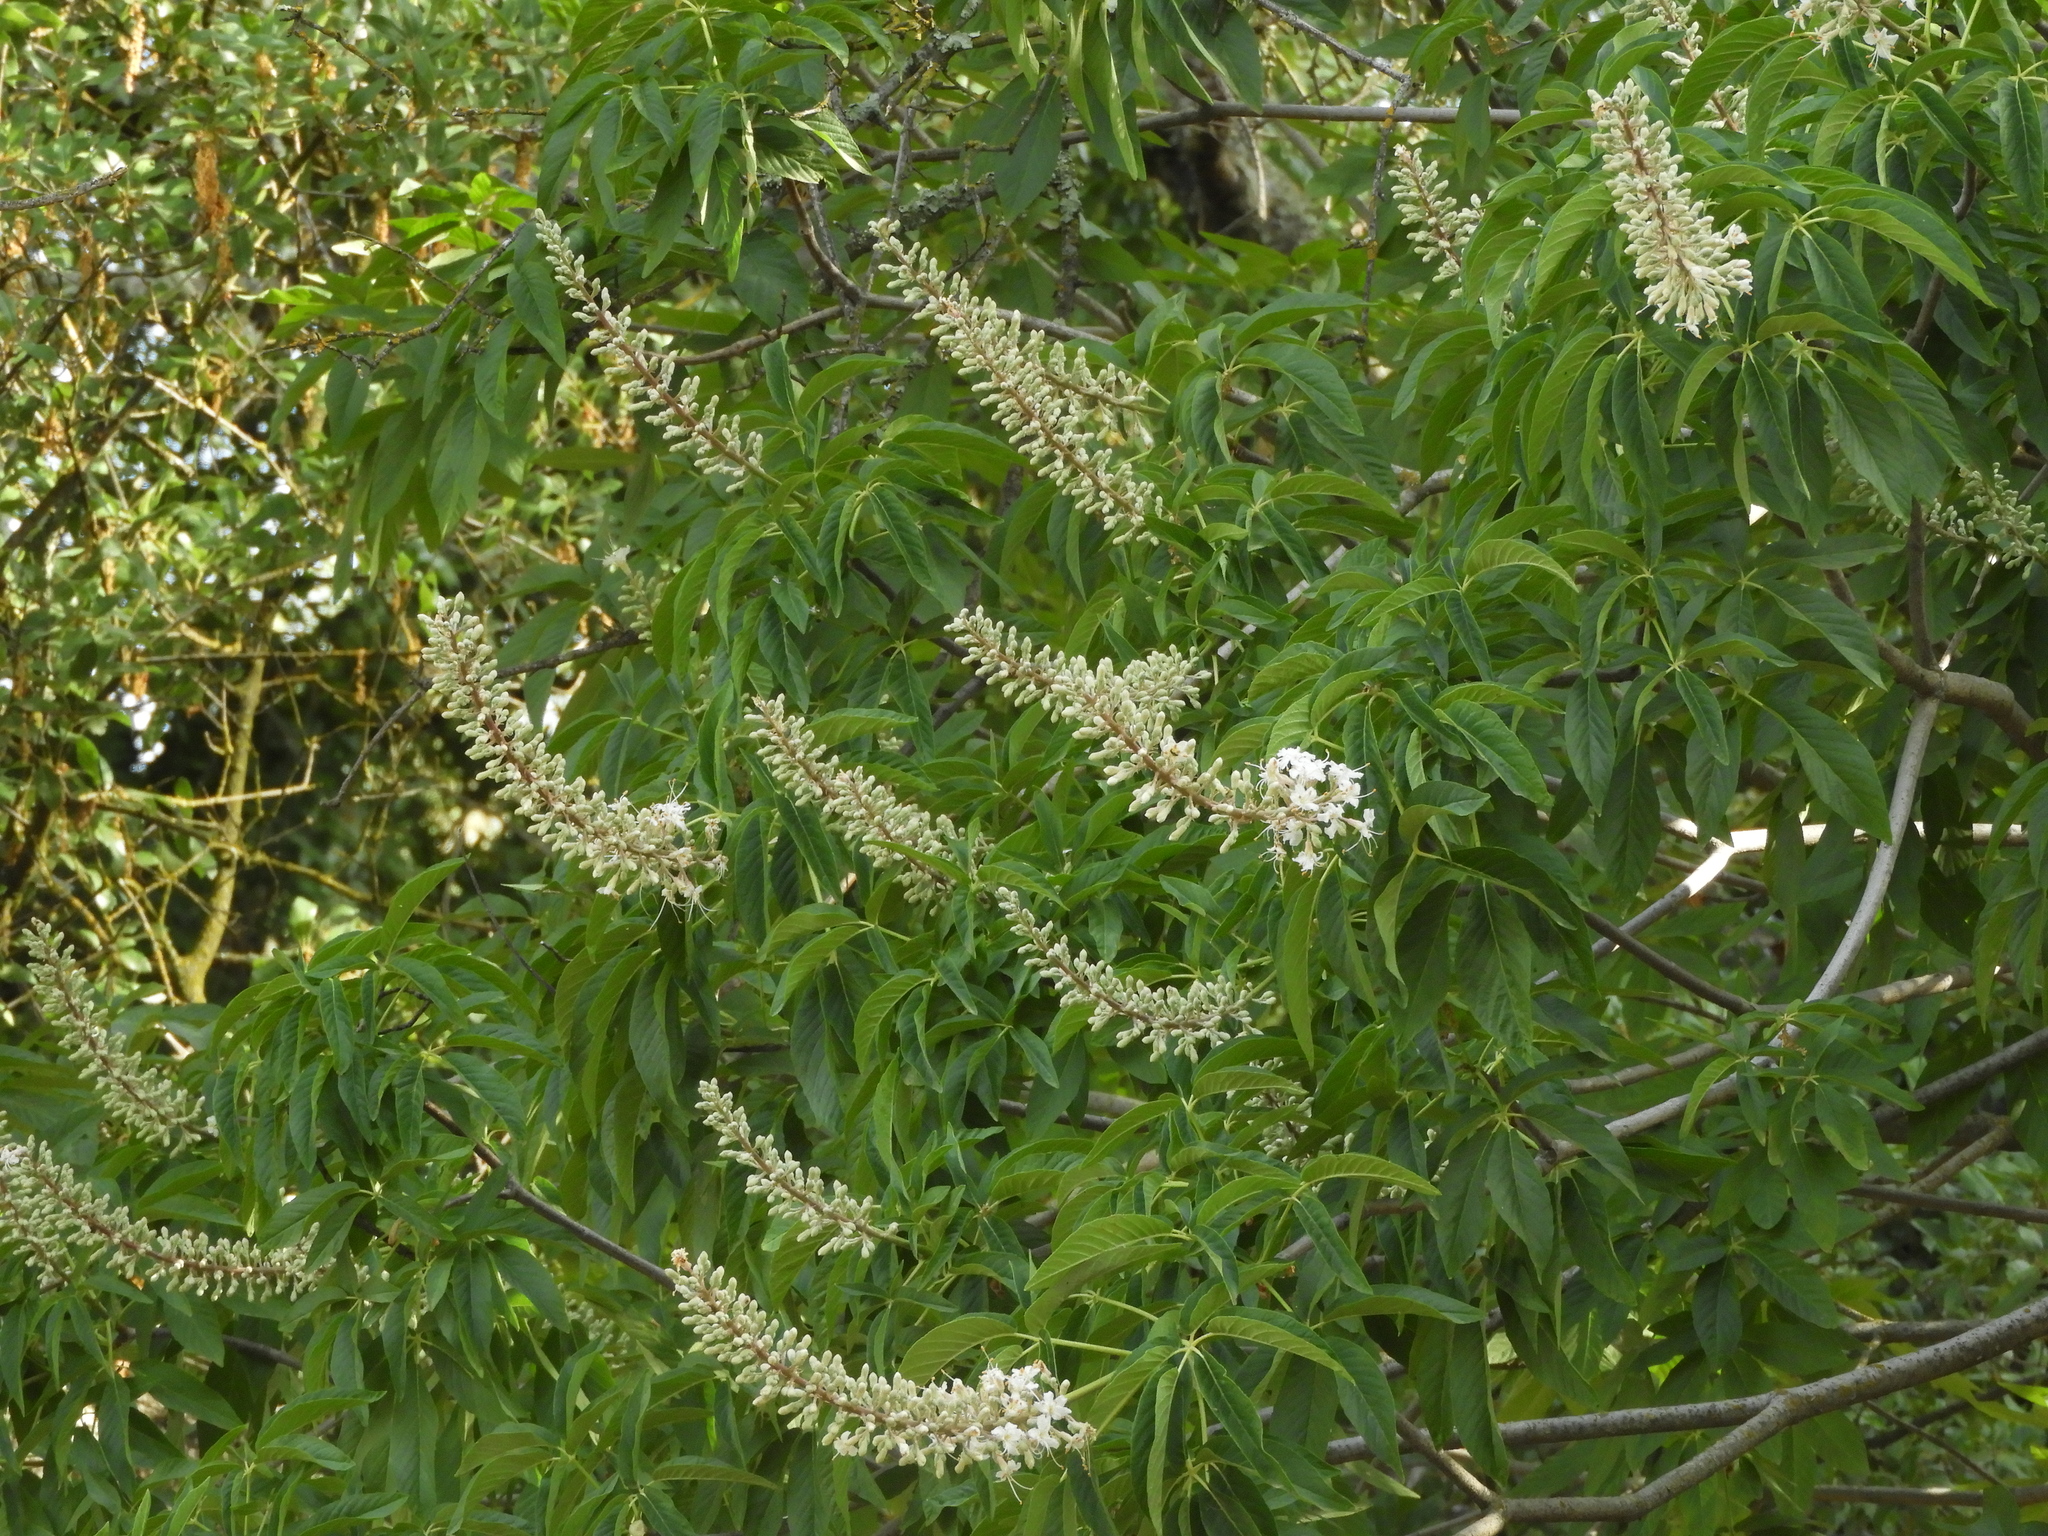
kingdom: Plantae
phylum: Tracheophyta
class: Magnoliopsida
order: Sapindales
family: Sapindaceae
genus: Aesculus
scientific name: Aesculus californica
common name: California buckeye
